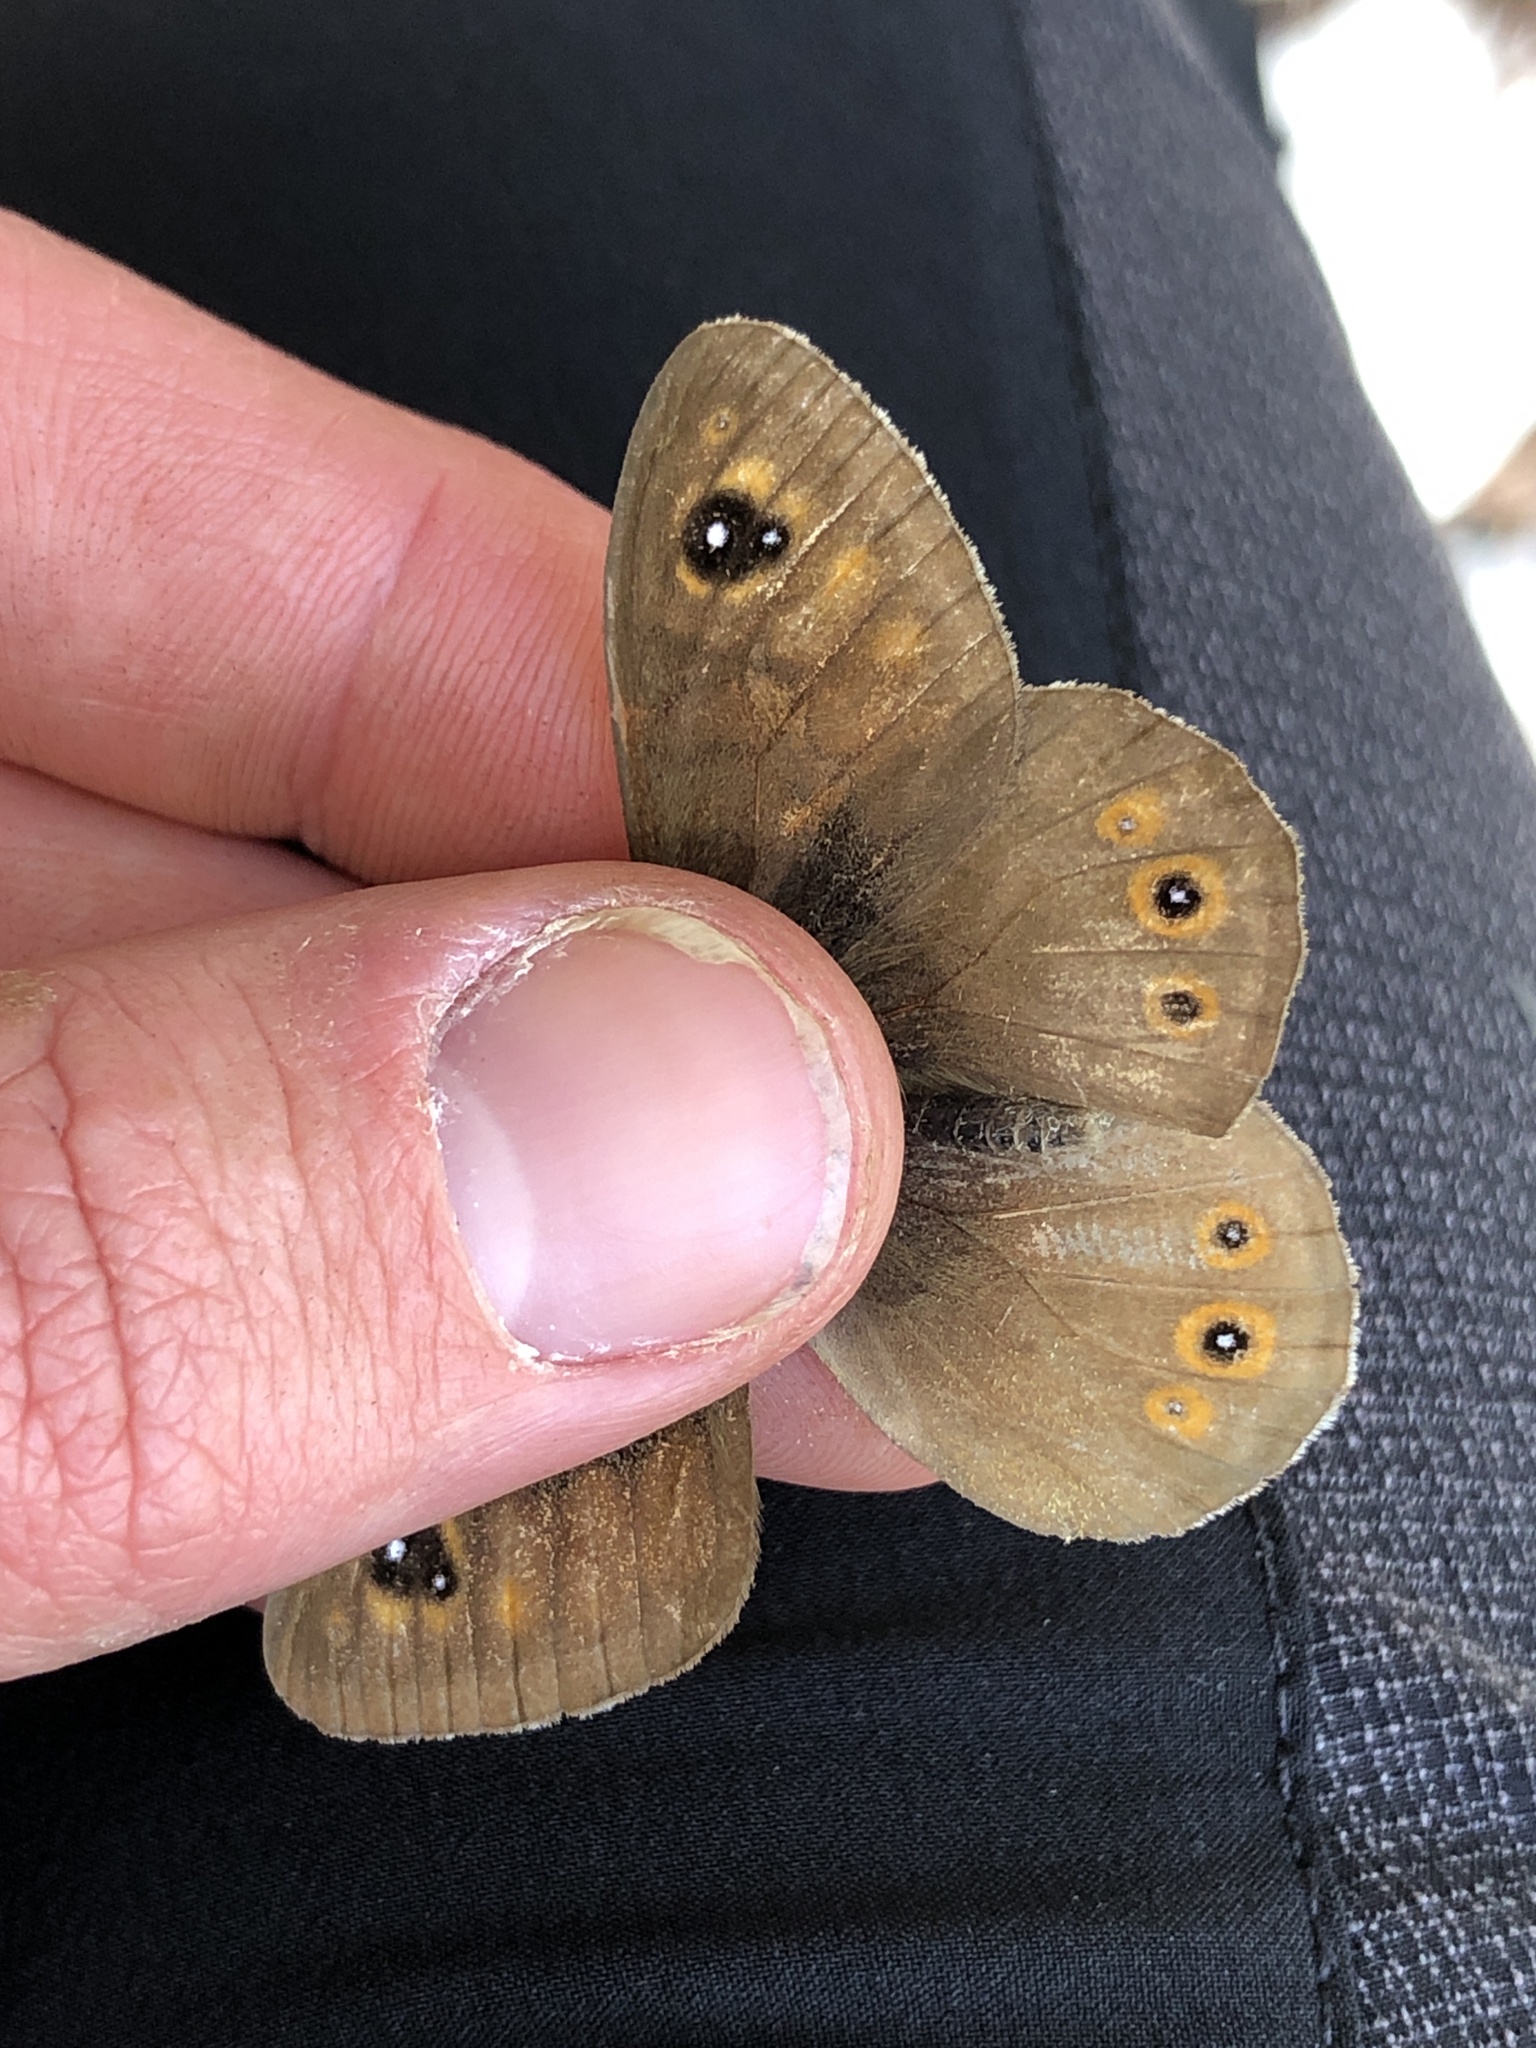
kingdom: Animalia
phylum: Arthropoda
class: Insecta
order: Lepidoptera
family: Nymphalidae
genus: Pararge
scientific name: Pararge Lasiommata maera
